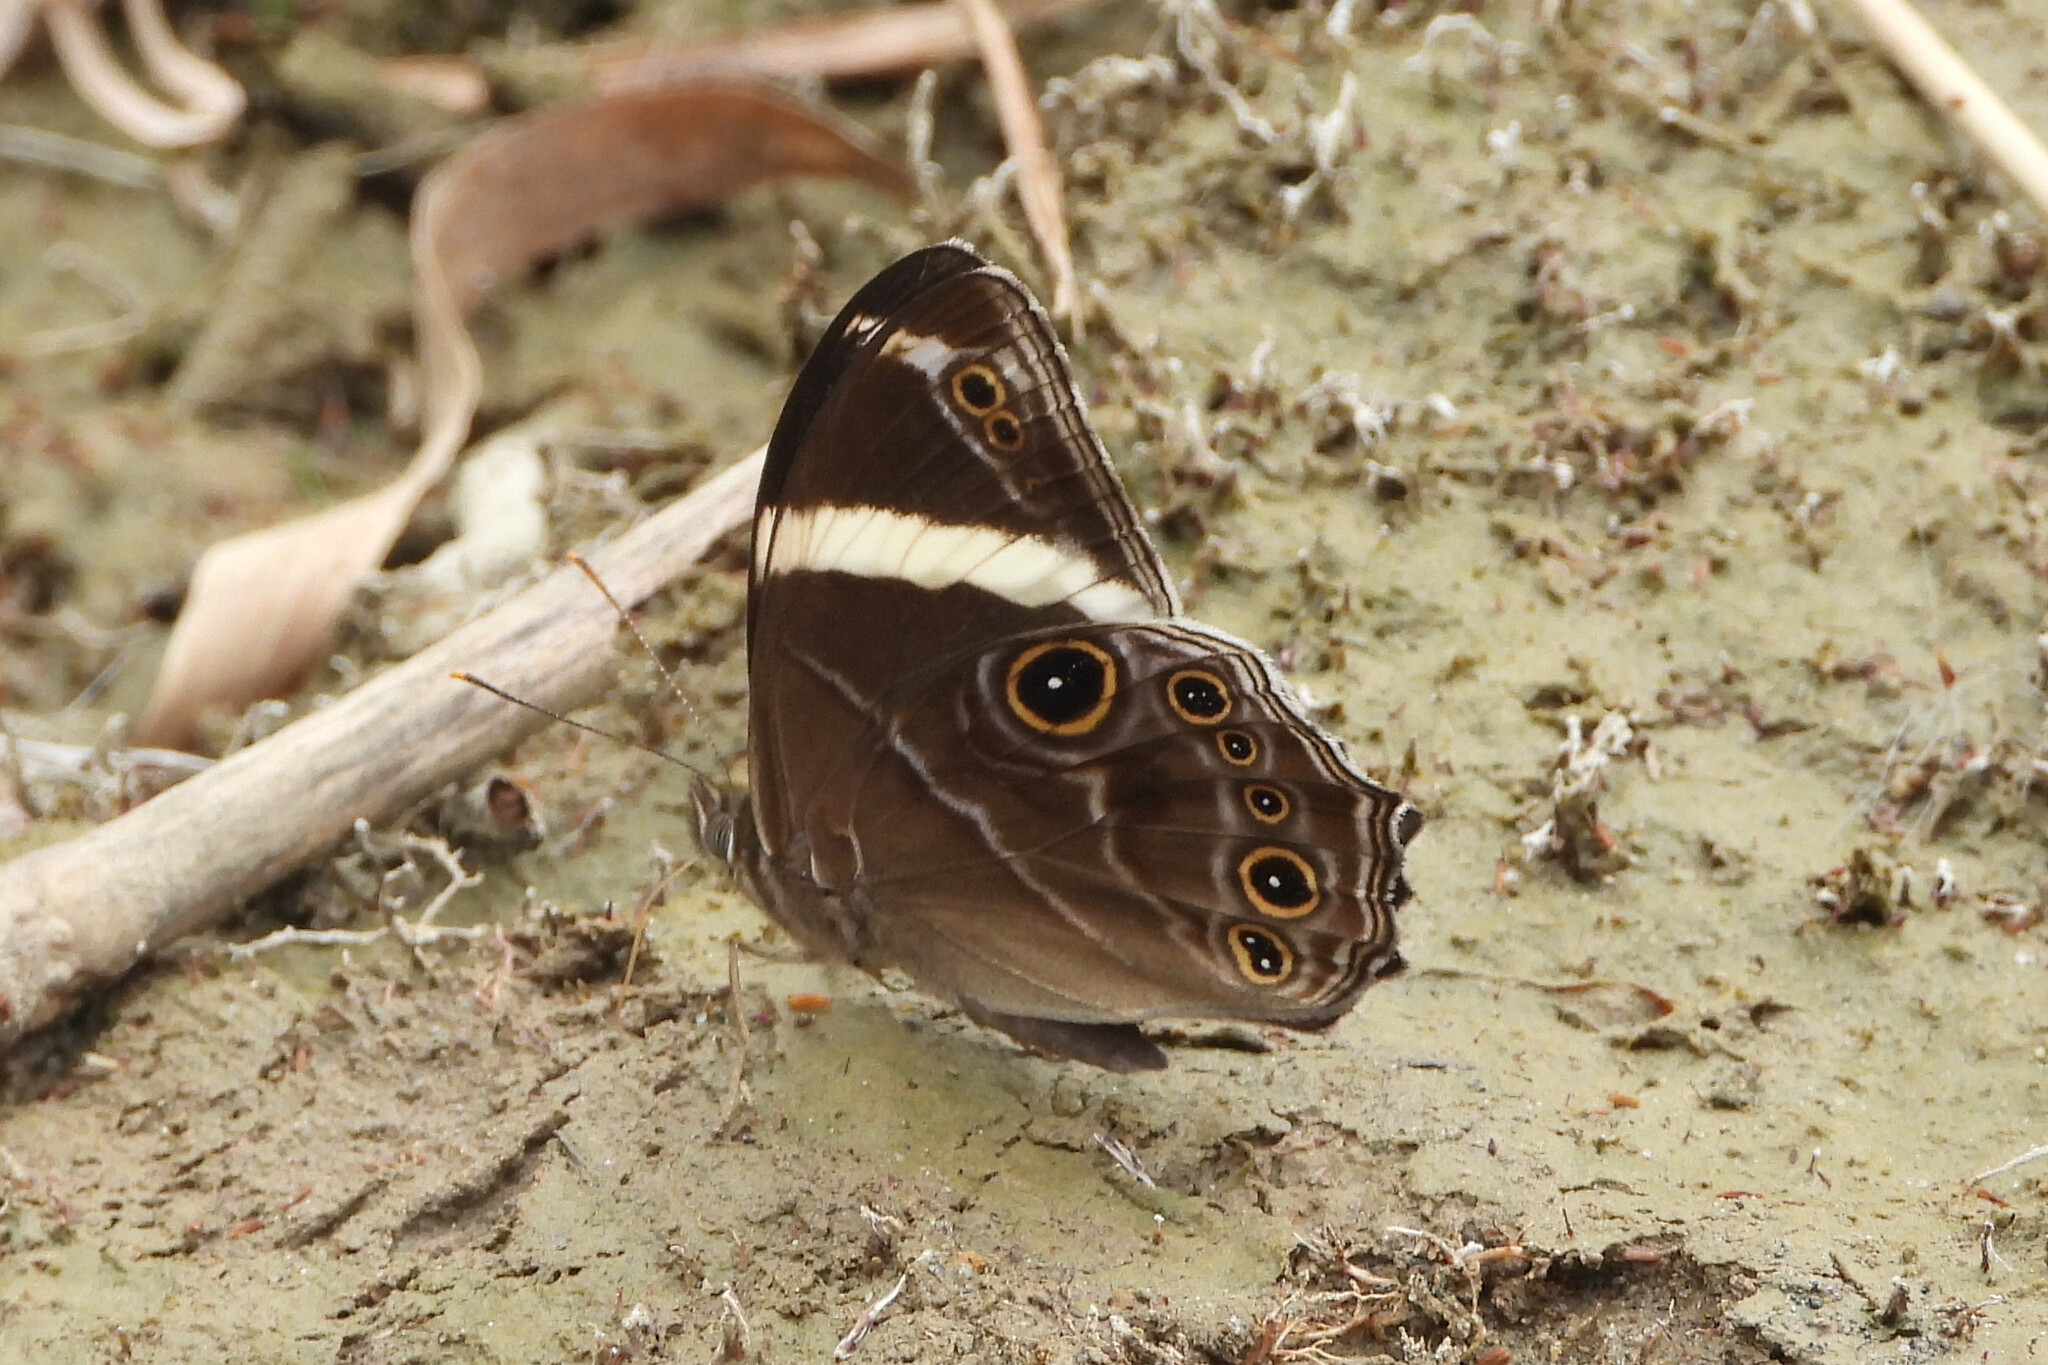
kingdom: Animalia
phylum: Arthropoda
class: Insecta
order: Lepidoptera
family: Nymphalidae
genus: Lethe
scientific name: Lethe confusa
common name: Banded treebrown
